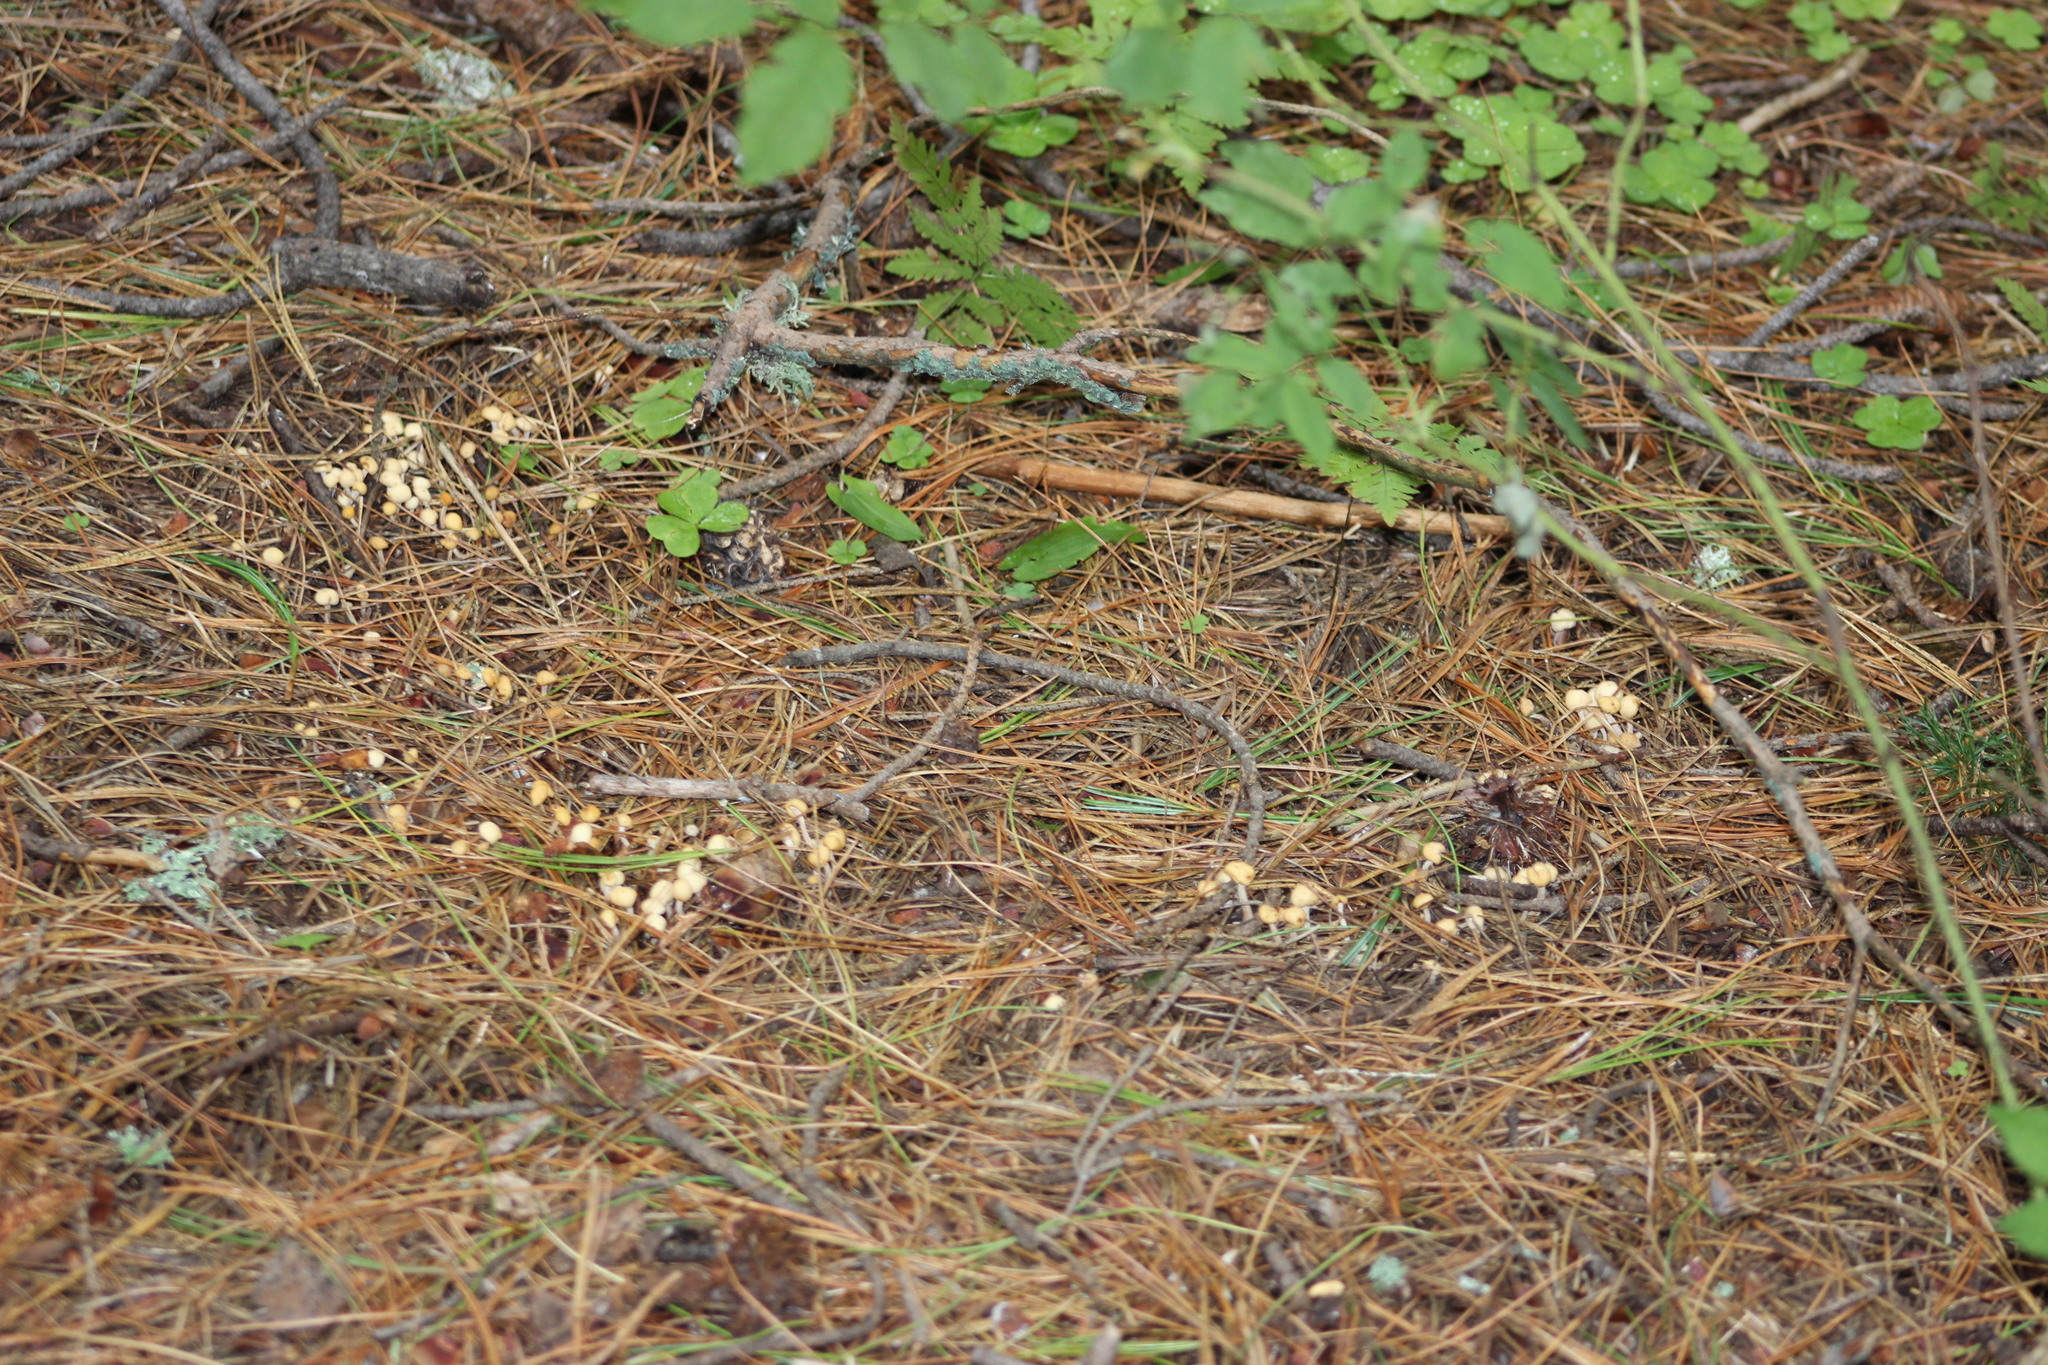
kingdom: Fungi
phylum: Ascomycota
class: Leotiomycetes
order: Rhytismatales
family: Cudoniaceae
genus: Cudonia
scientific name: Cudonia circinans
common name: Redleg jellybaby
